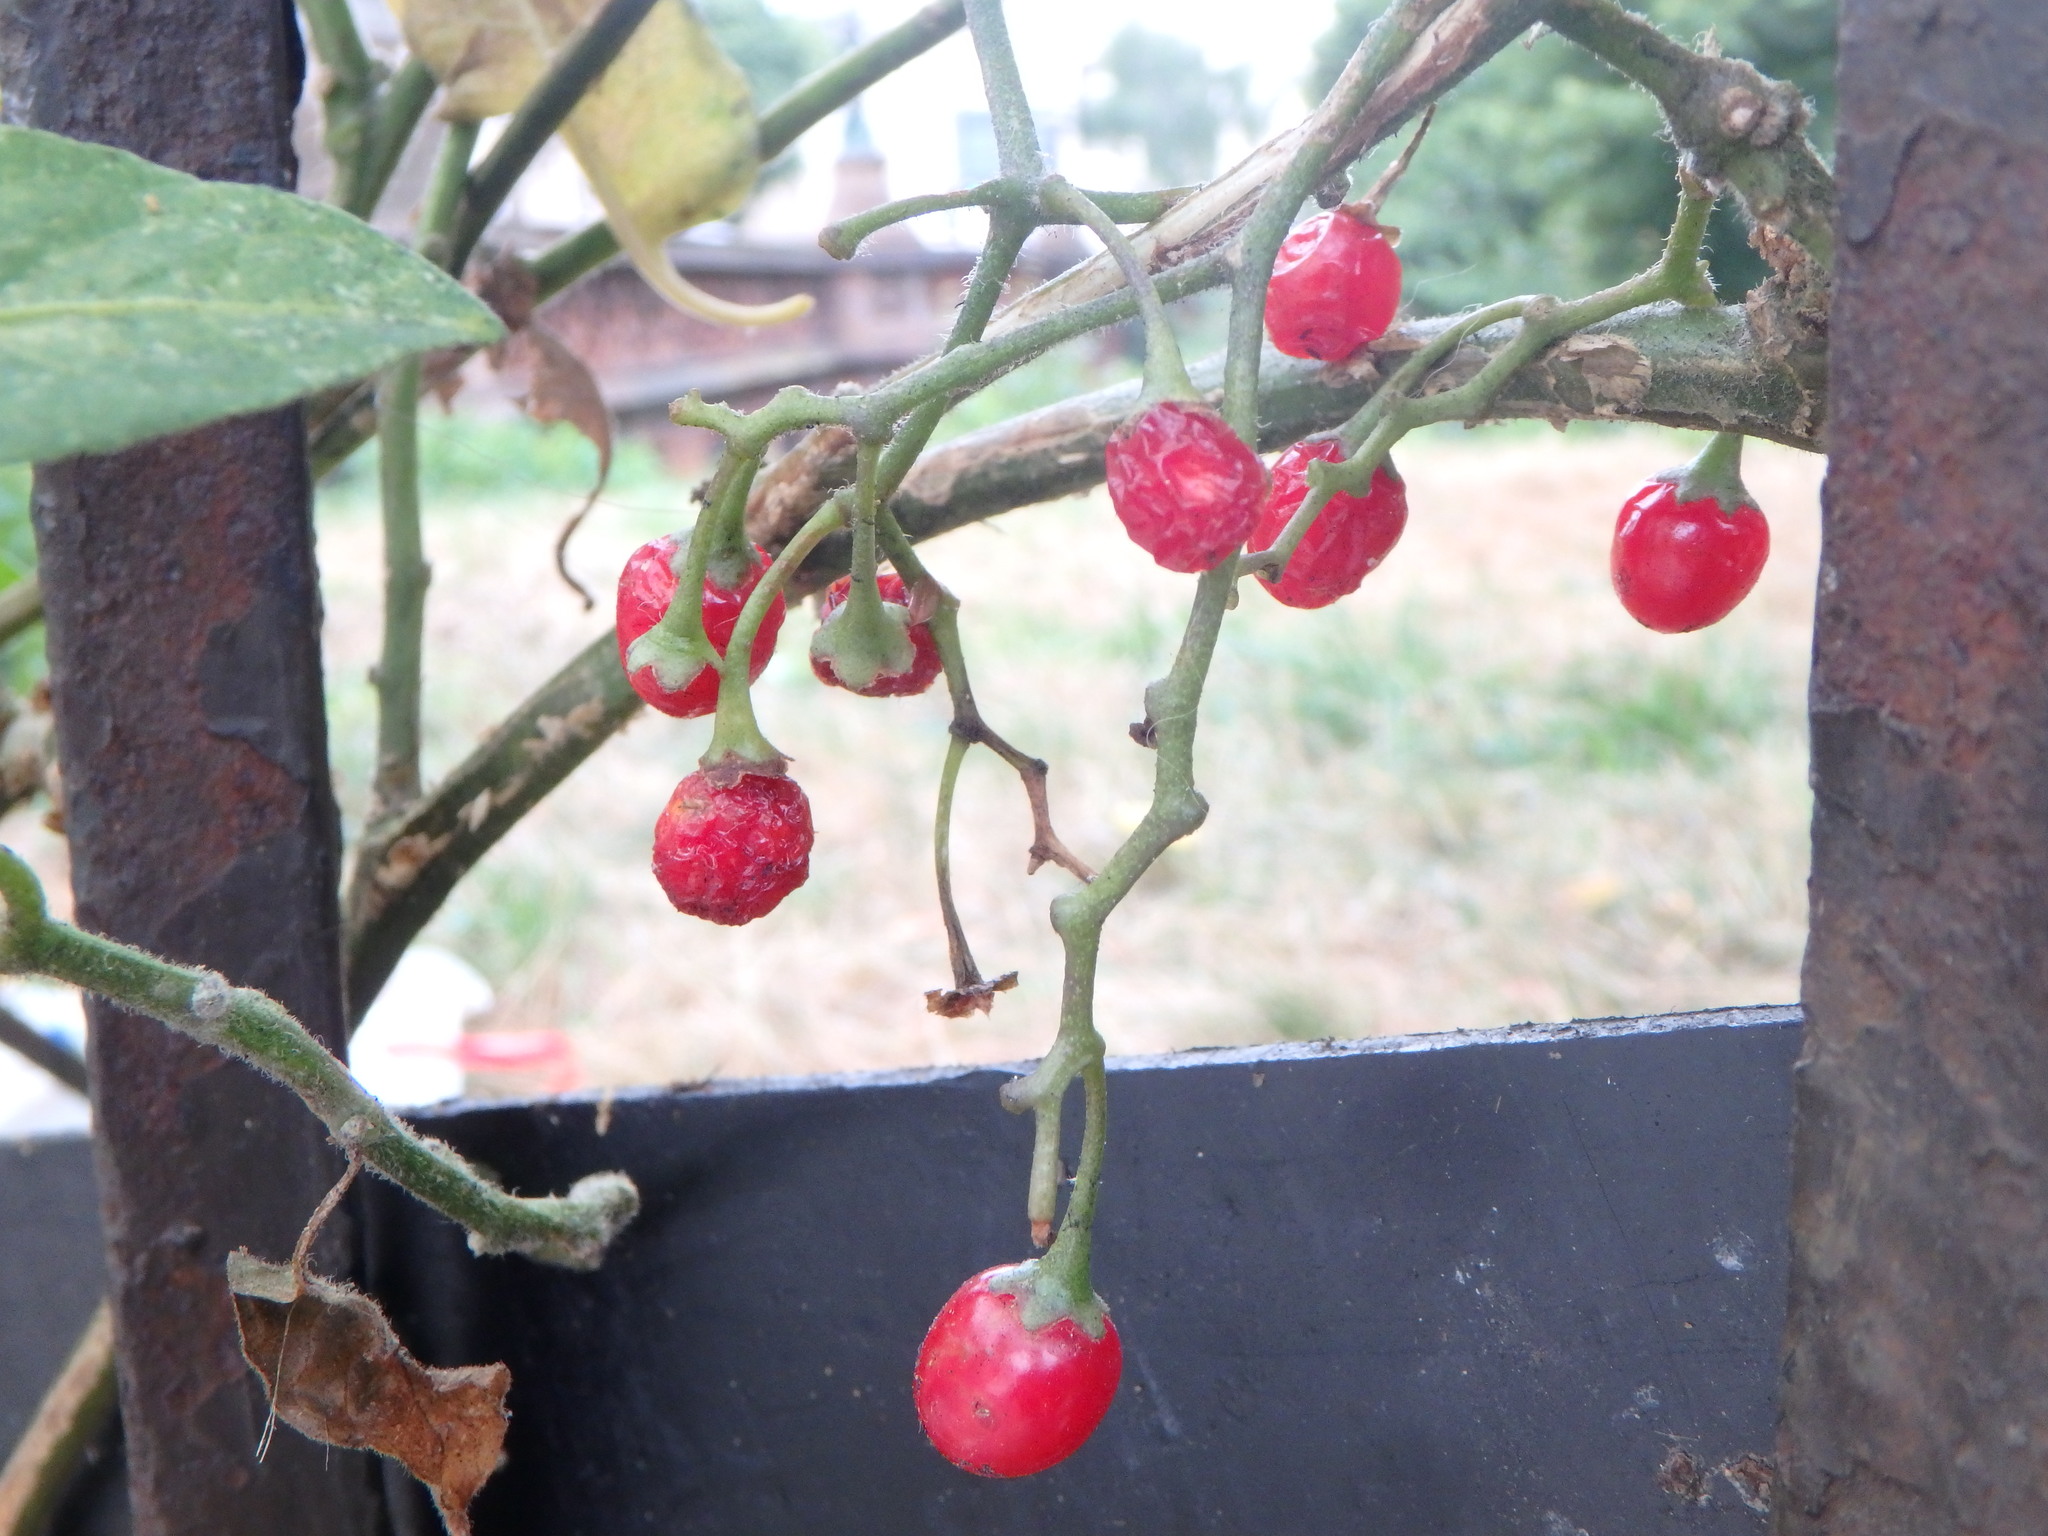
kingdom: Plantae
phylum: Tracheophyta
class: Magnoliopsida
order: Solanales
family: Solanaceae
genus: Solanum
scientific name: Solanum dulcamara
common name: Climbing nightshade
